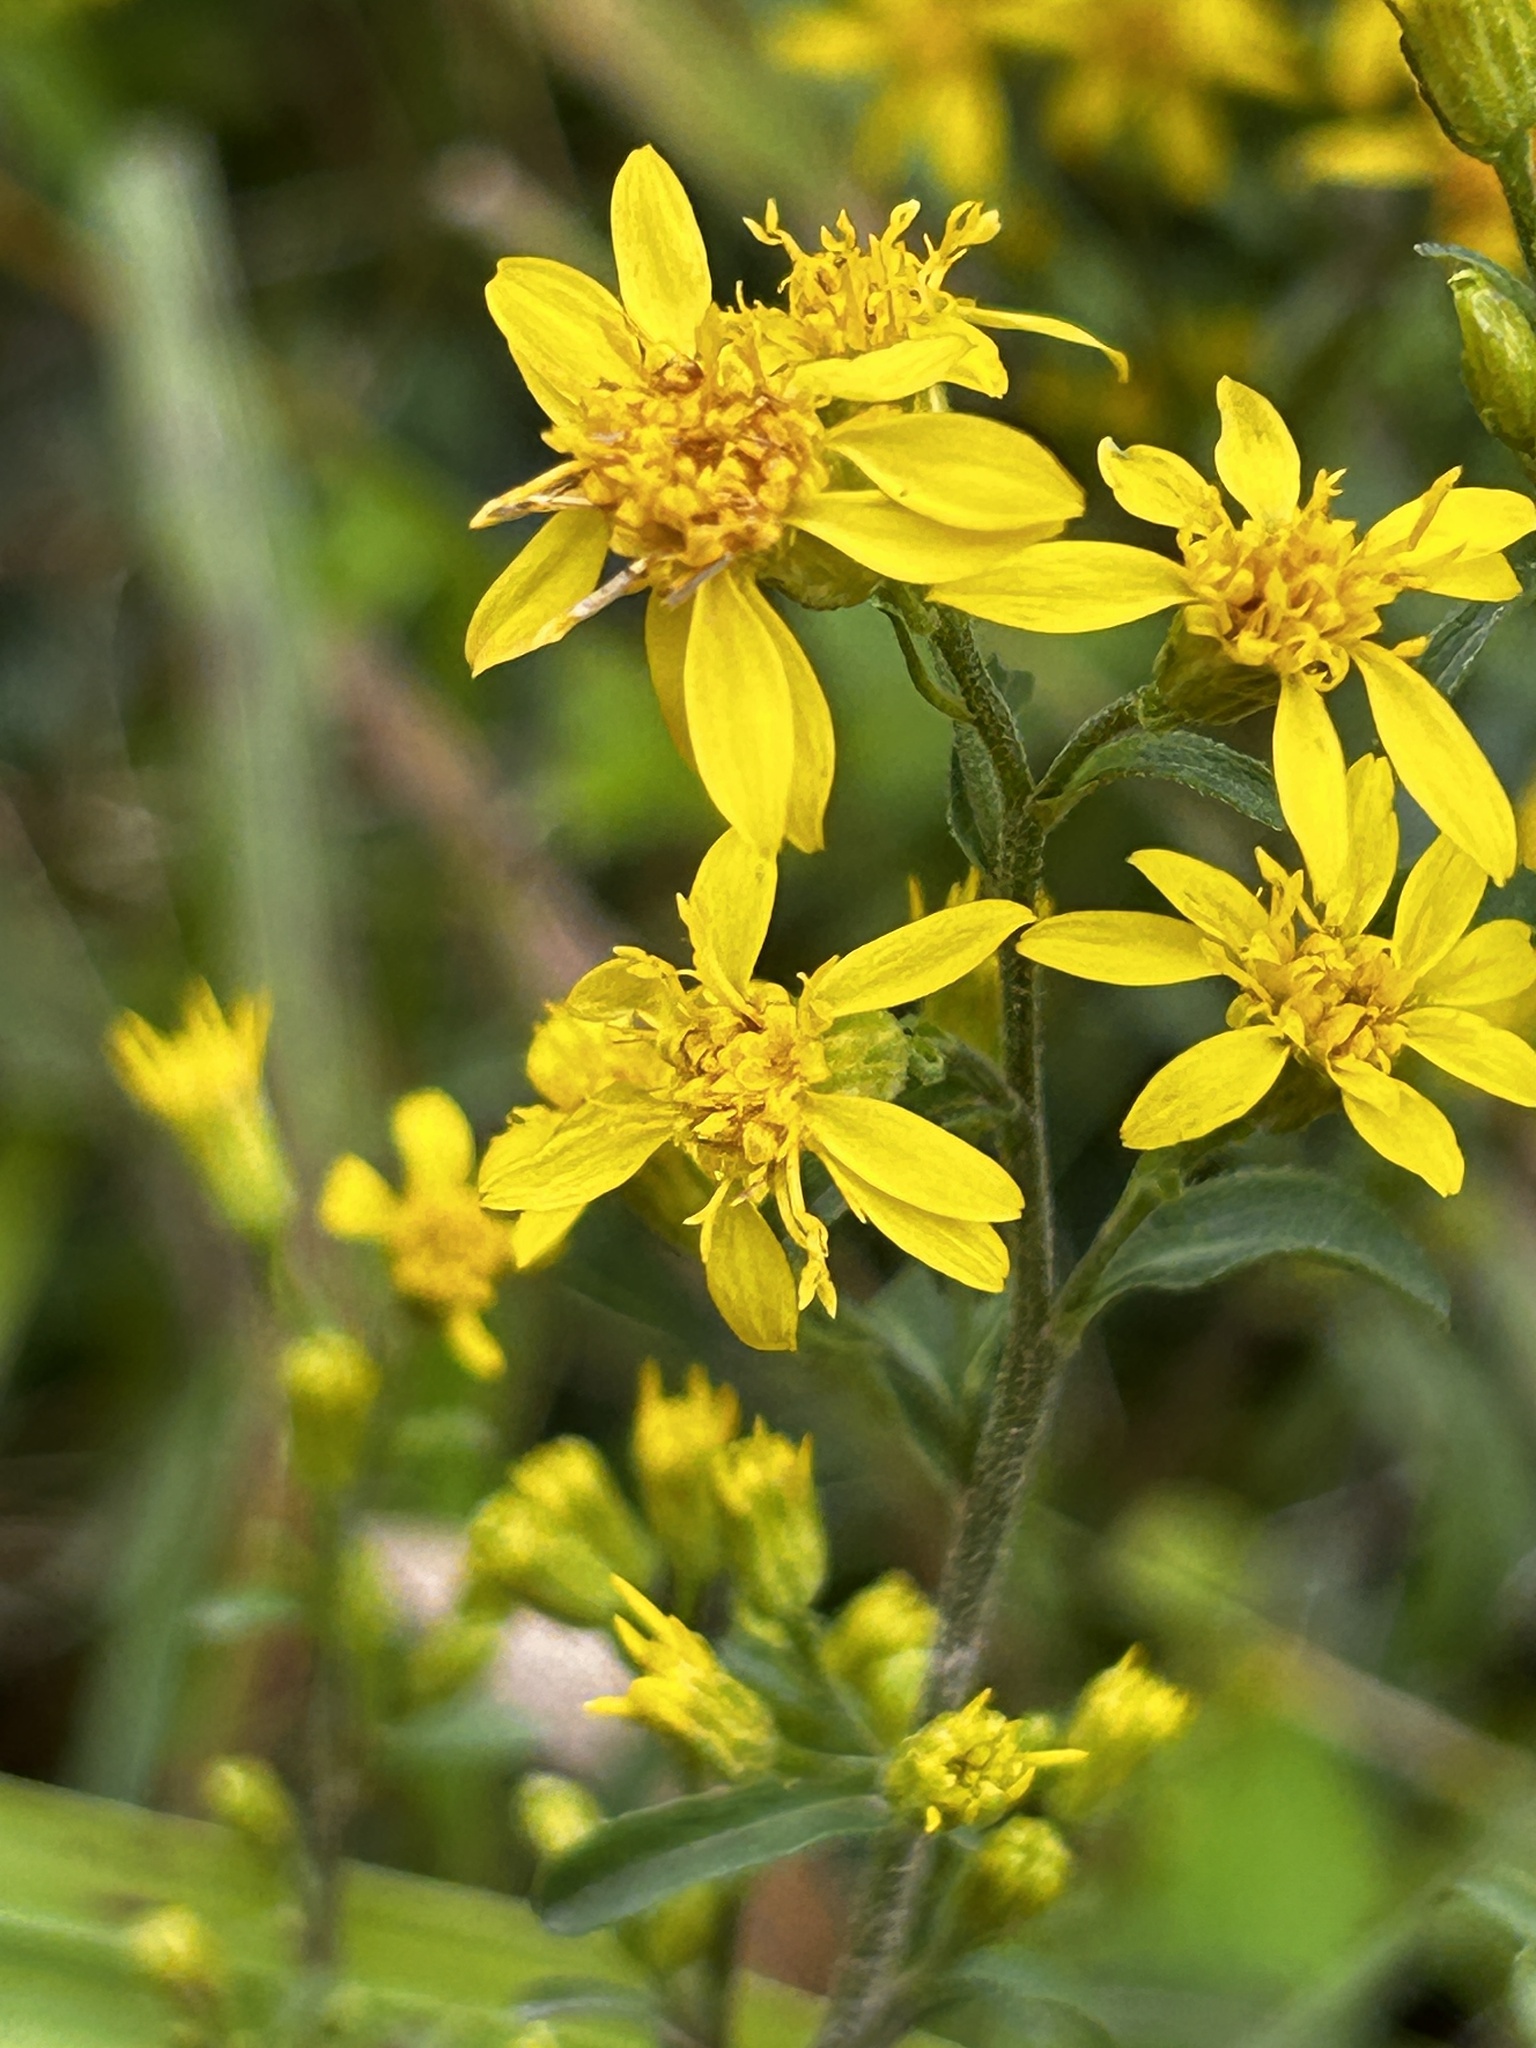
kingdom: Plantae
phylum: Tracheophyta
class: Magnoliopsida
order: Asterales
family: Asteraceae
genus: Solidago
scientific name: Solidago virgaurea
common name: Goldenrod
